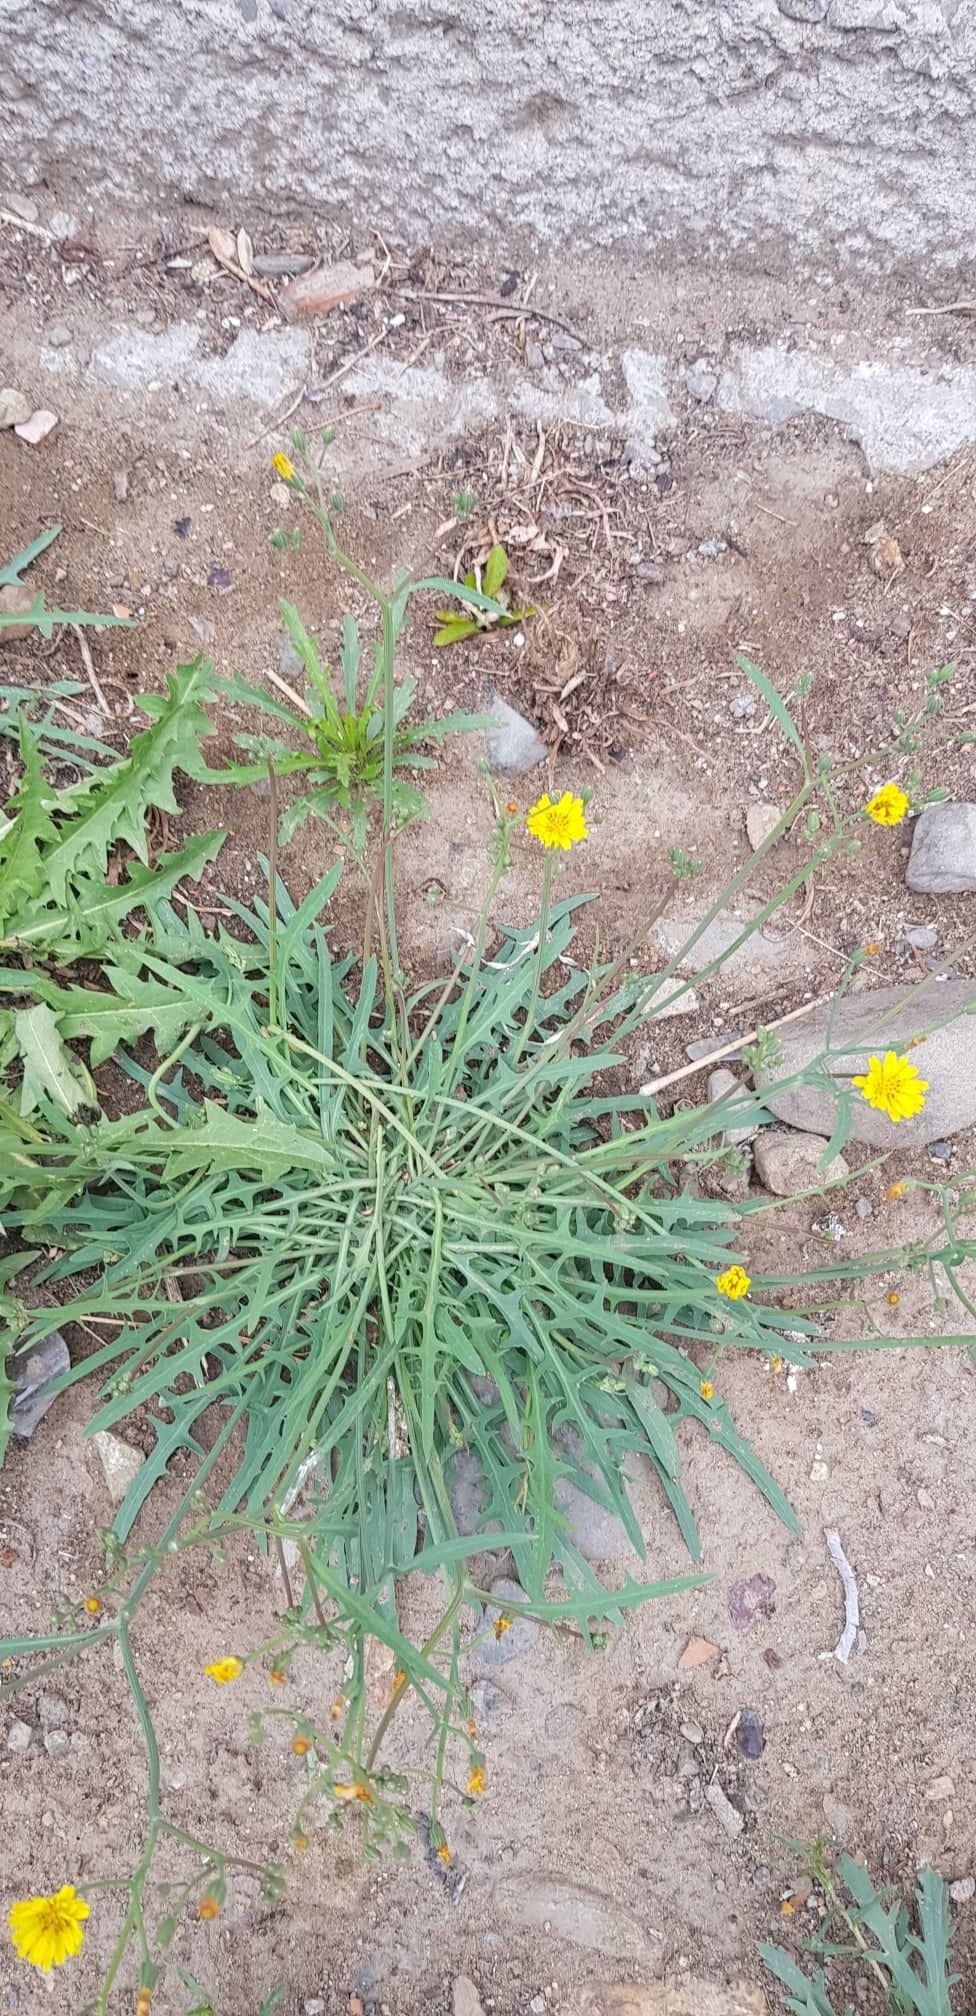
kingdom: Plantae
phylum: Tracheophyta
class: Magnoliopsida
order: Asterales
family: Asteraceae
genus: Crepidiastrum
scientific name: Crepidiastrum tenuifolium
